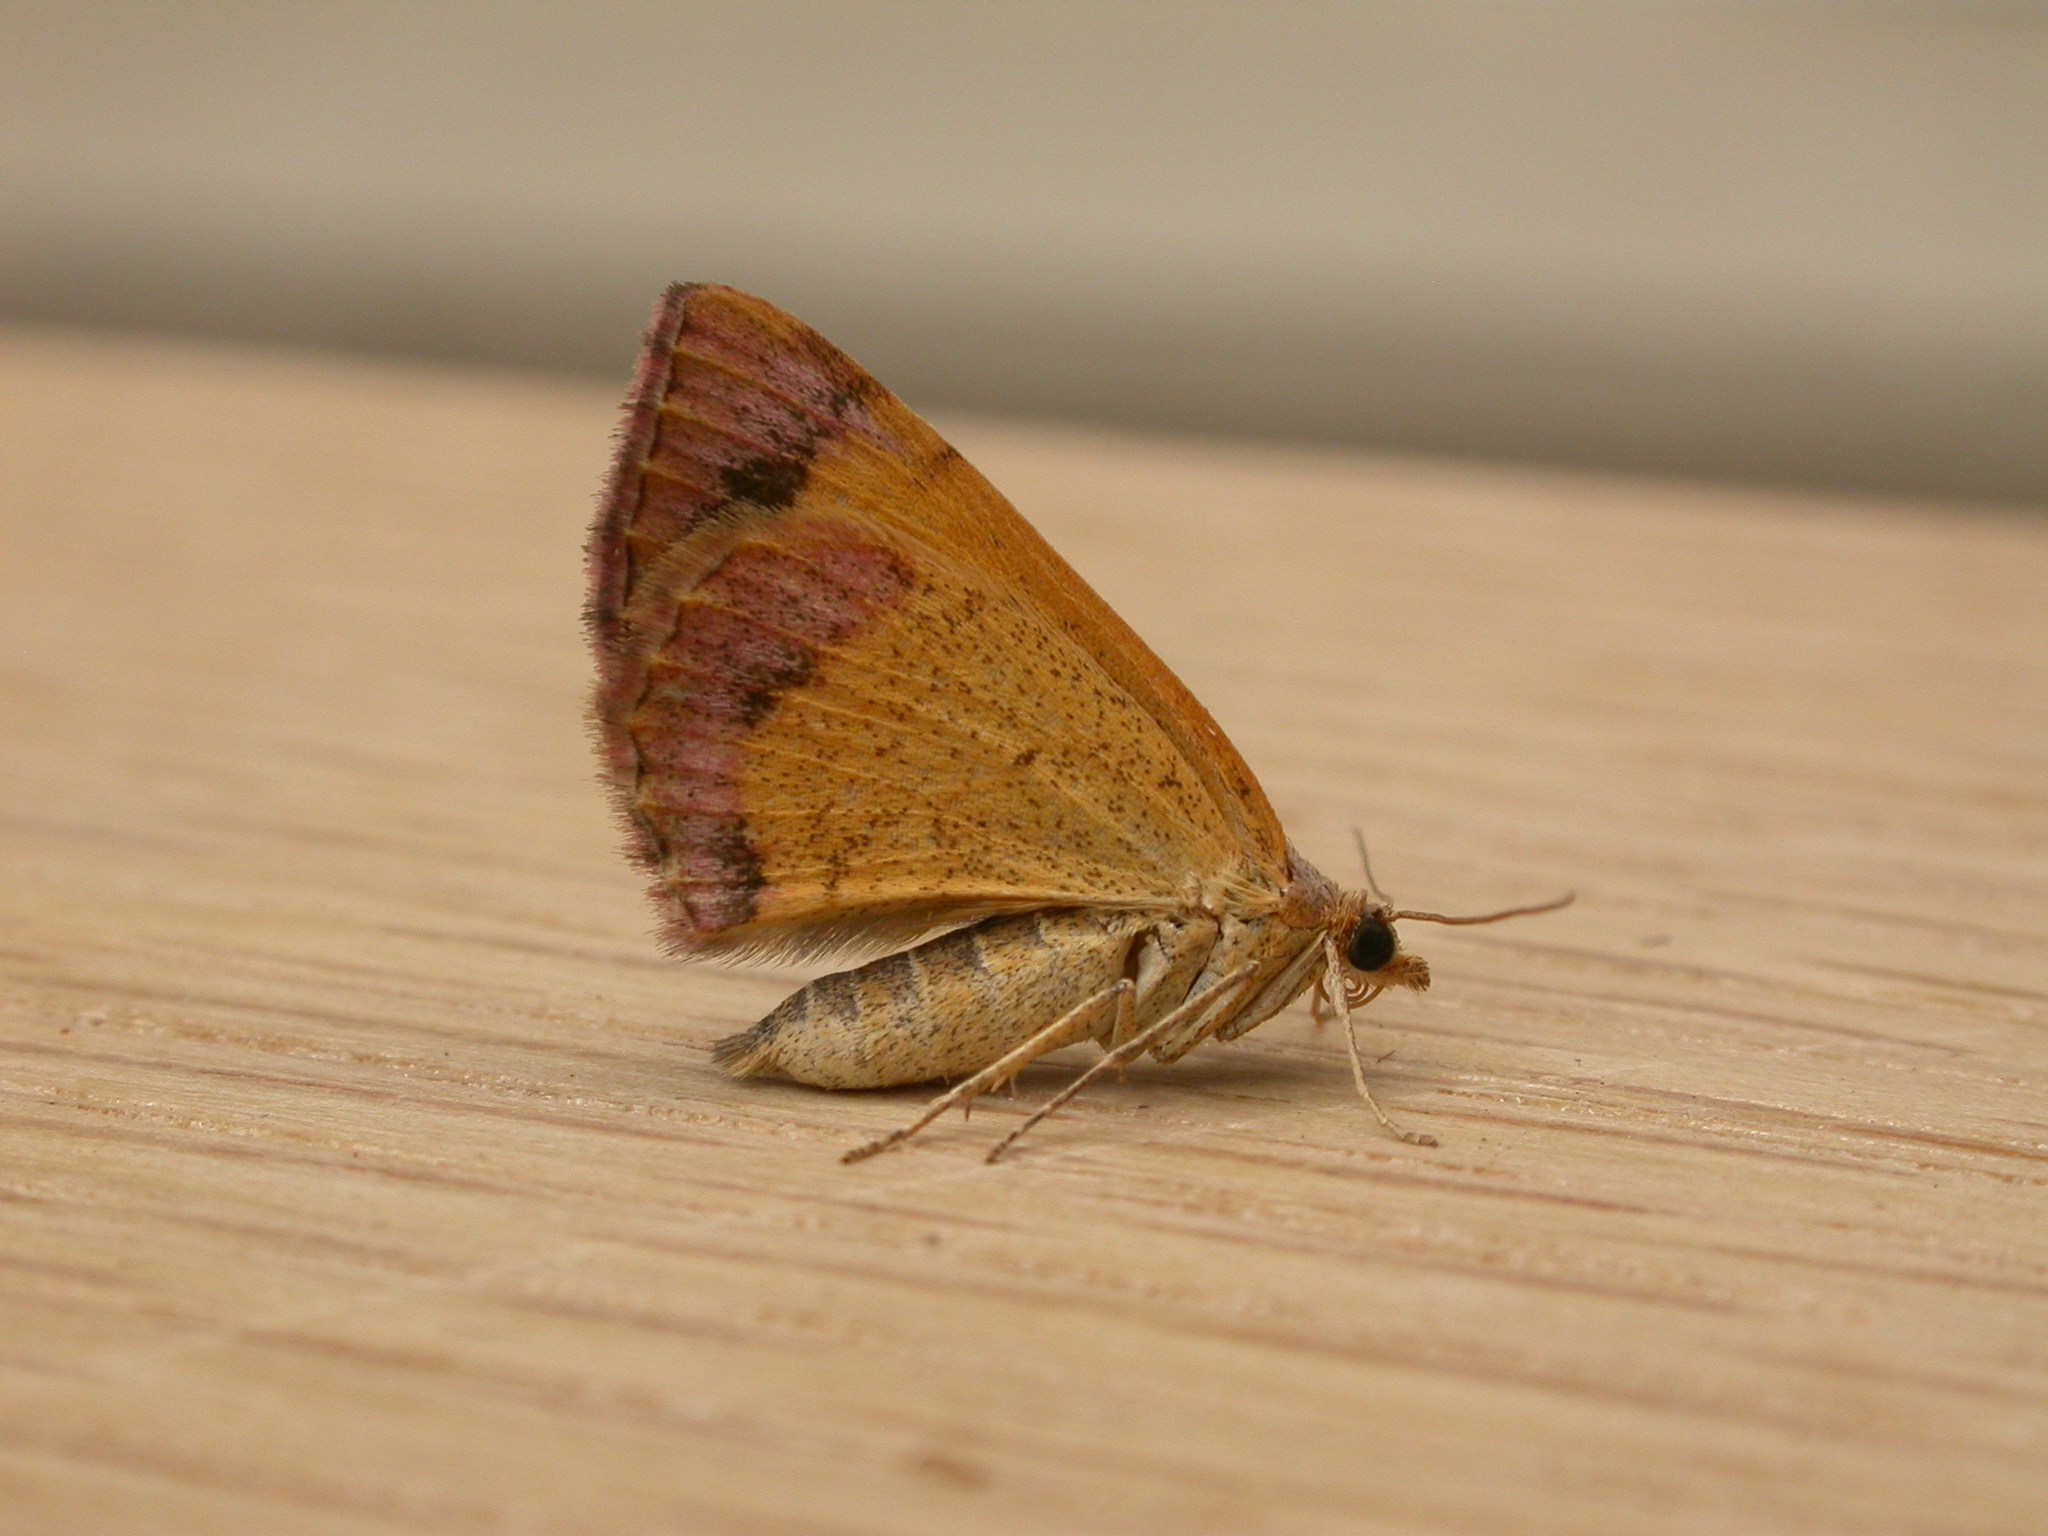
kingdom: Animalia
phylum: Arthropoda
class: Insecta
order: Lepidoptera
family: Geometridae
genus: Chrysolarentia
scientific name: Chrysolarentia mecynata
